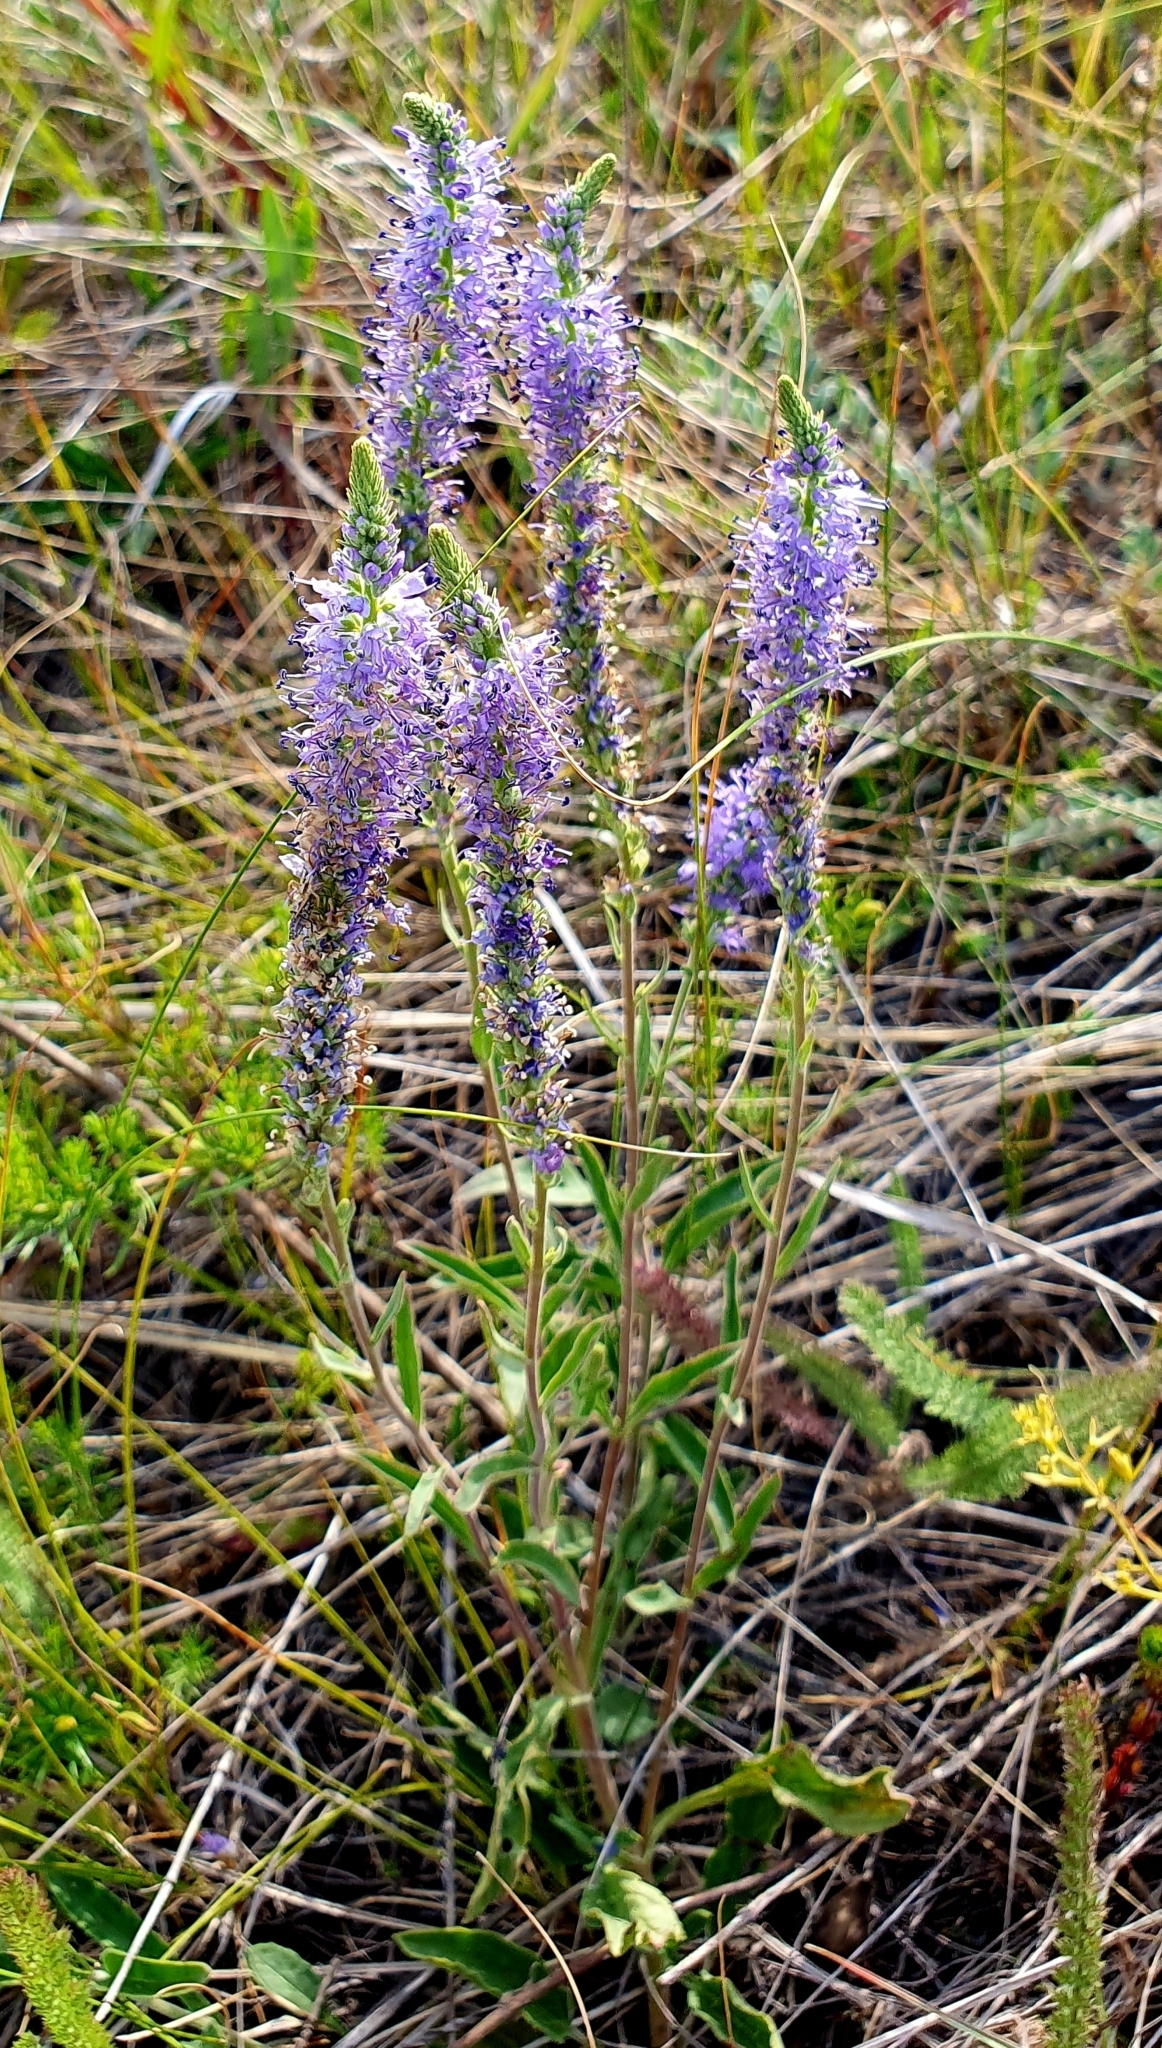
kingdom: Plantae
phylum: Tracheophyta
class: Magnoliopsida
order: Lamiales
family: Plantaginaceae
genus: Veronica
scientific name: Veronica spicata
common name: Spiked speedwell
